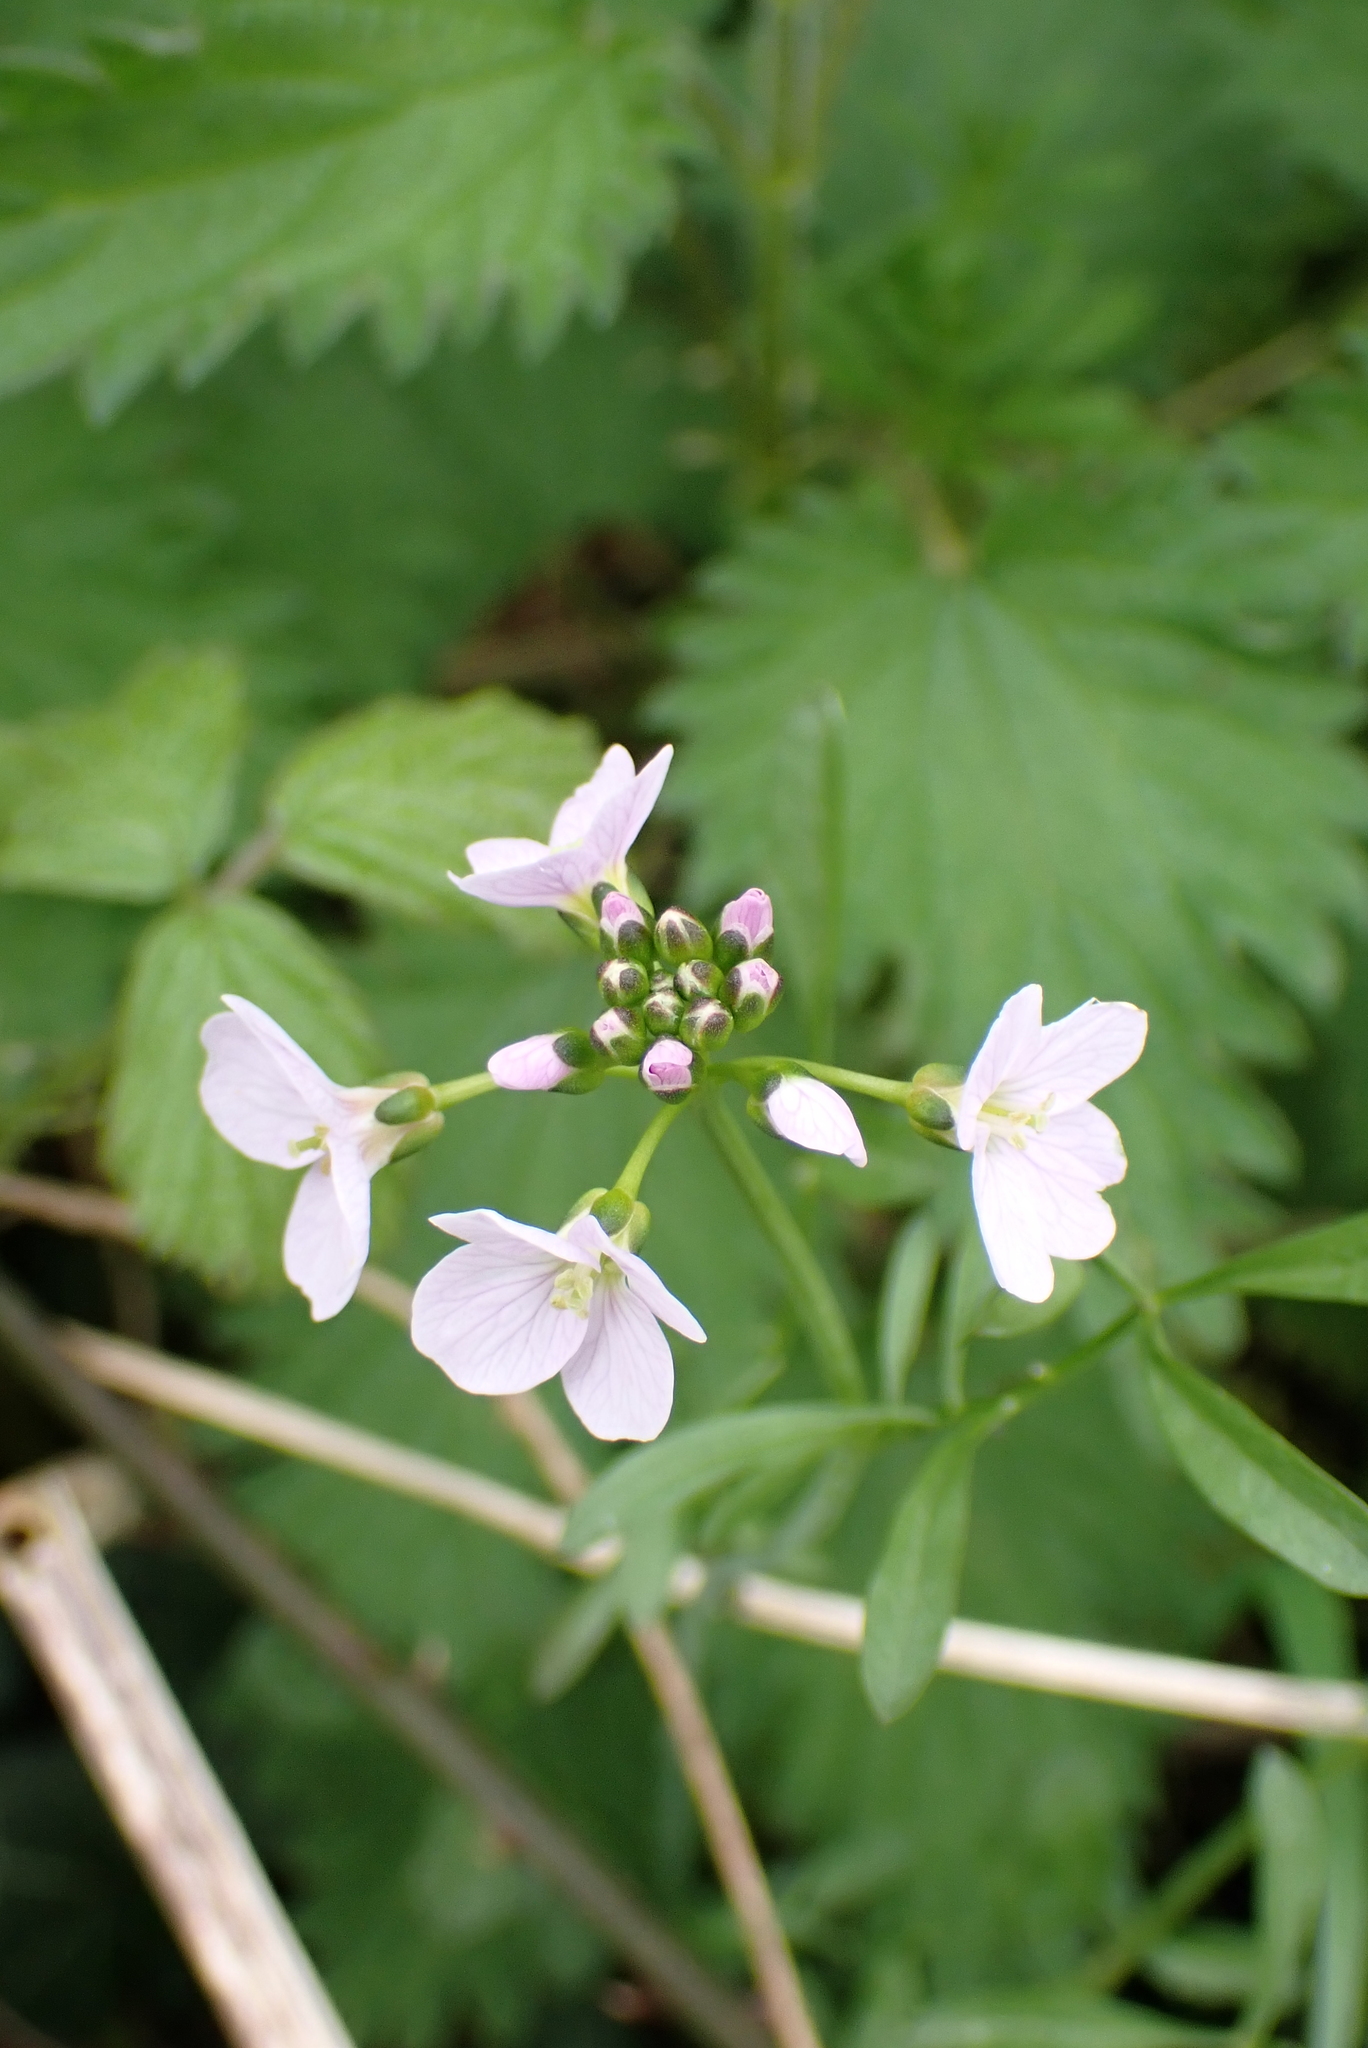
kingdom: Plantae
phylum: Tracheophyta
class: Magnoliopsida
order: Brassicales
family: Brassicaceae
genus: Cardamine
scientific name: Cardamine pratensis
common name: Cuckoo flower
